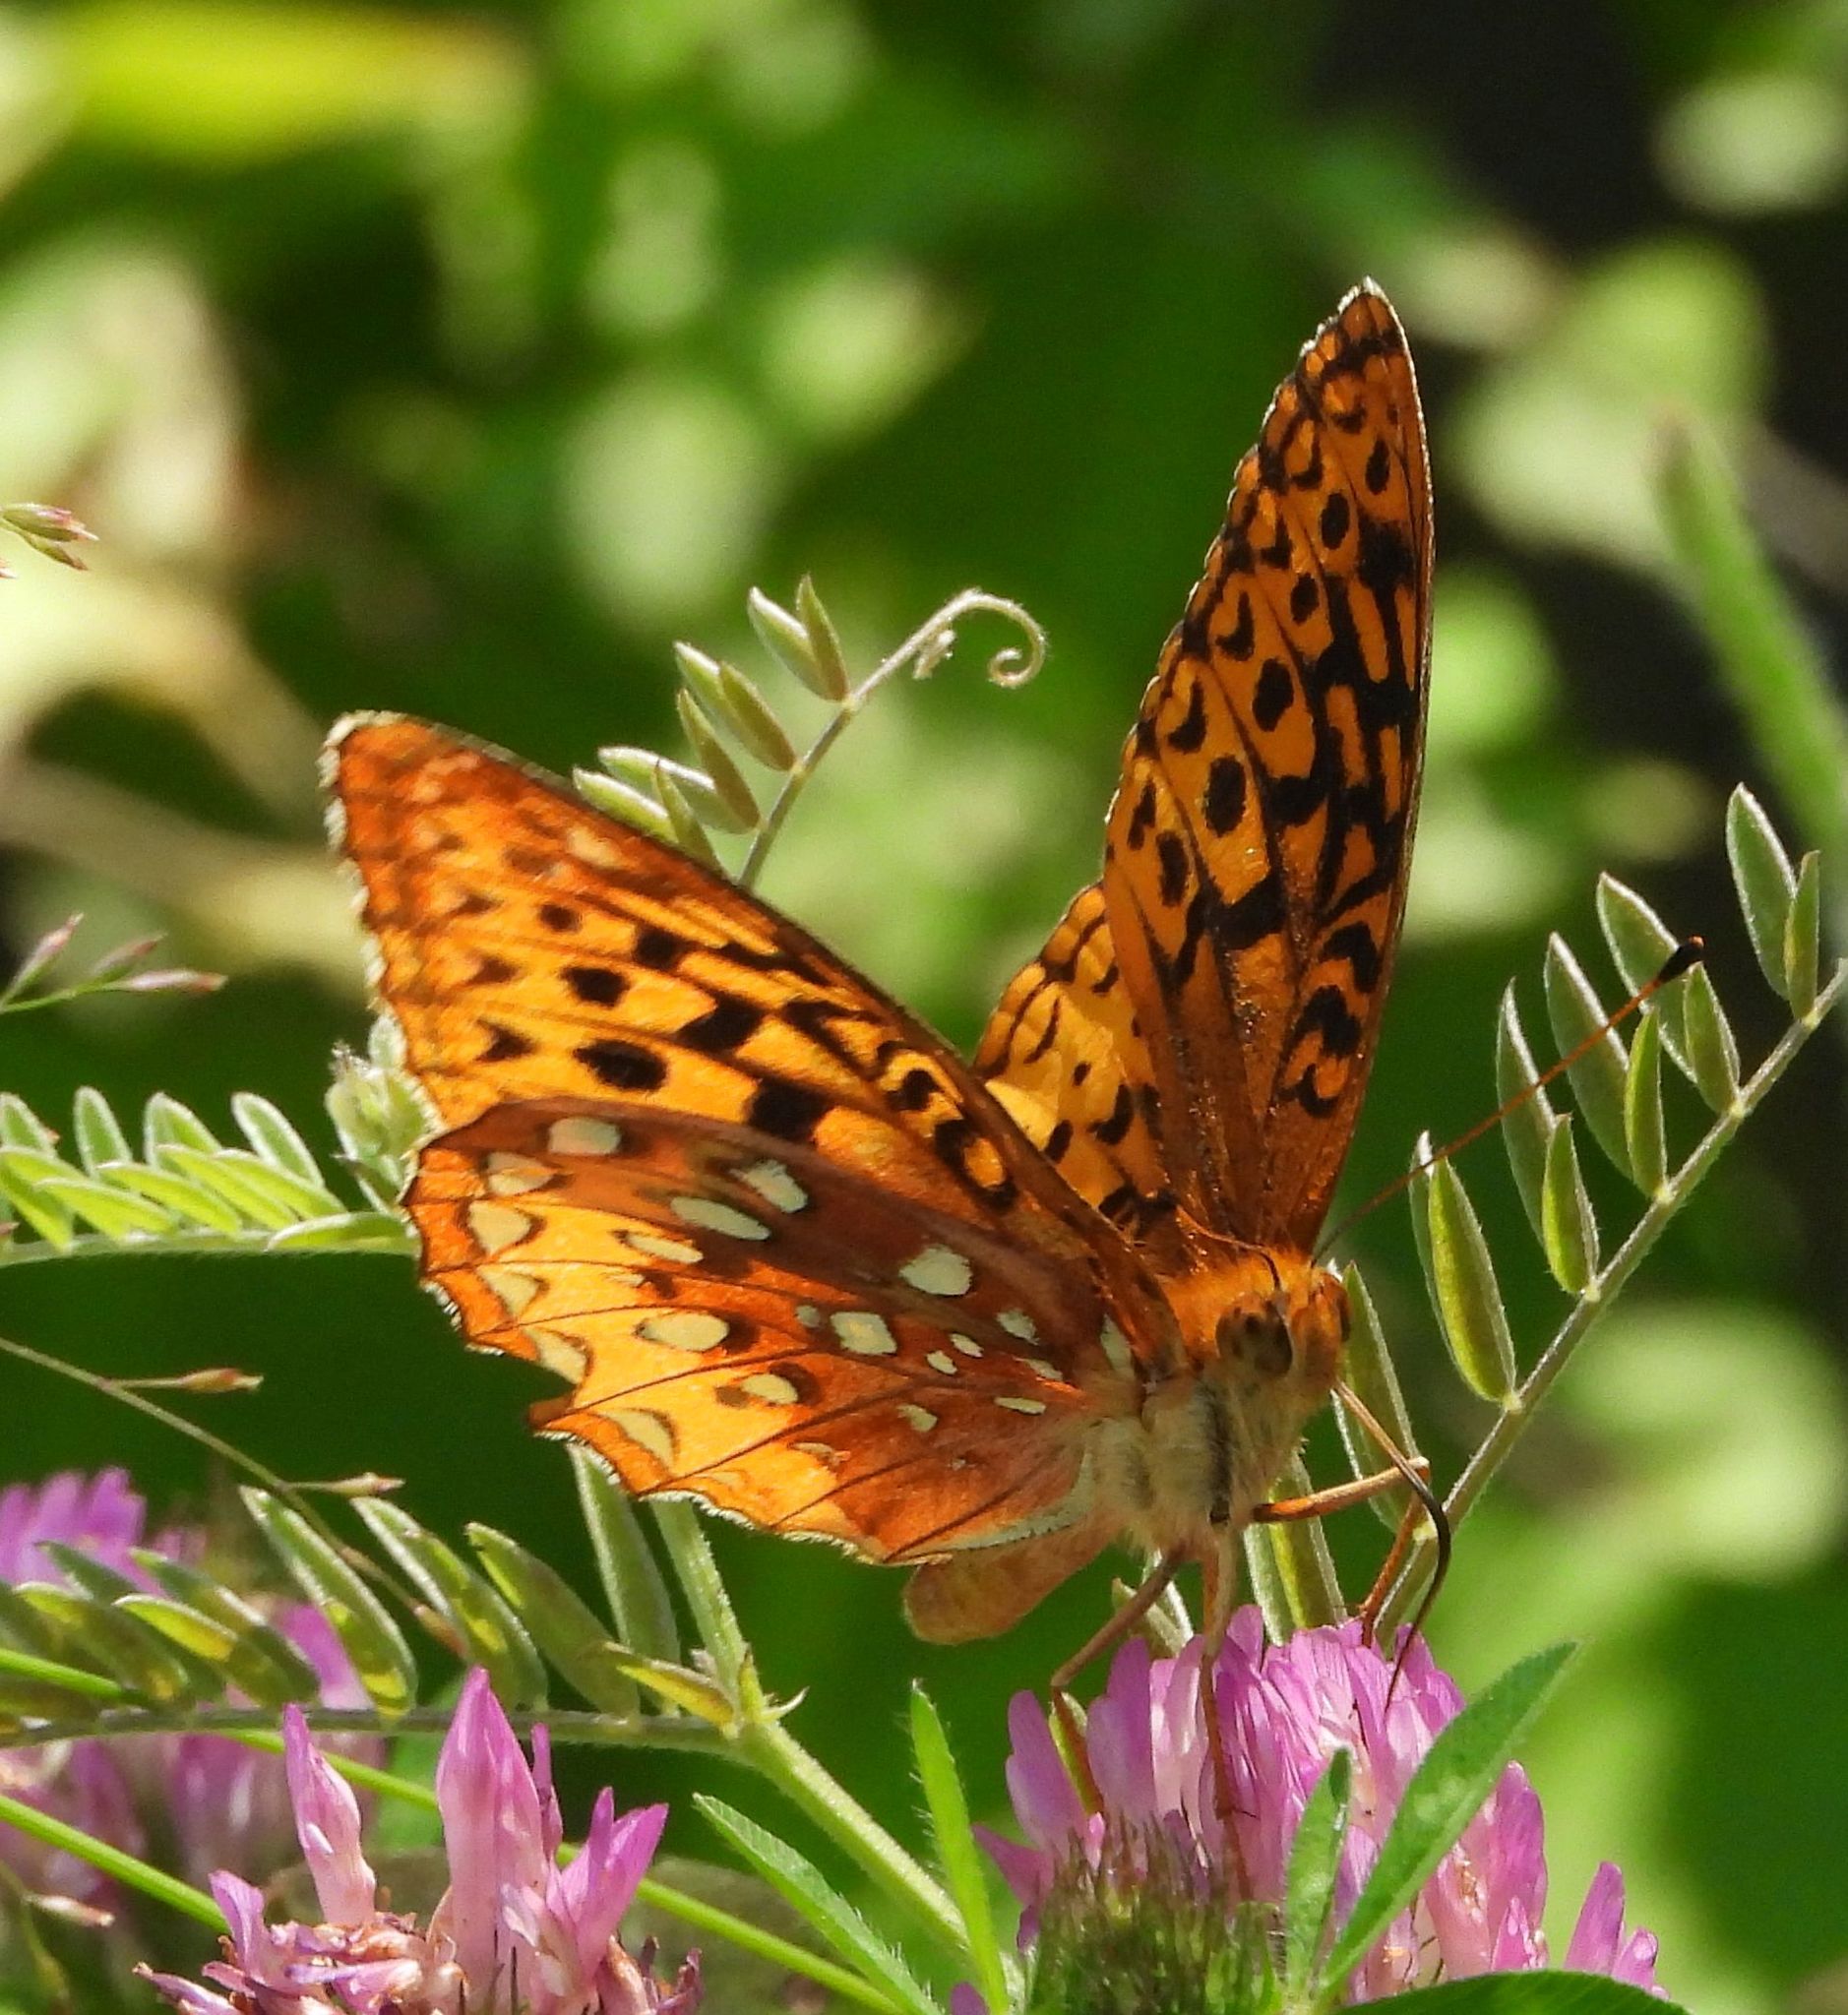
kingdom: Animalia
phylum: Arthropoda
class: Insecta
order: Lepidoptera
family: Nymphalidae
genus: Speyeria
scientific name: Speyeria cybele
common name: Great spangled fritillary
